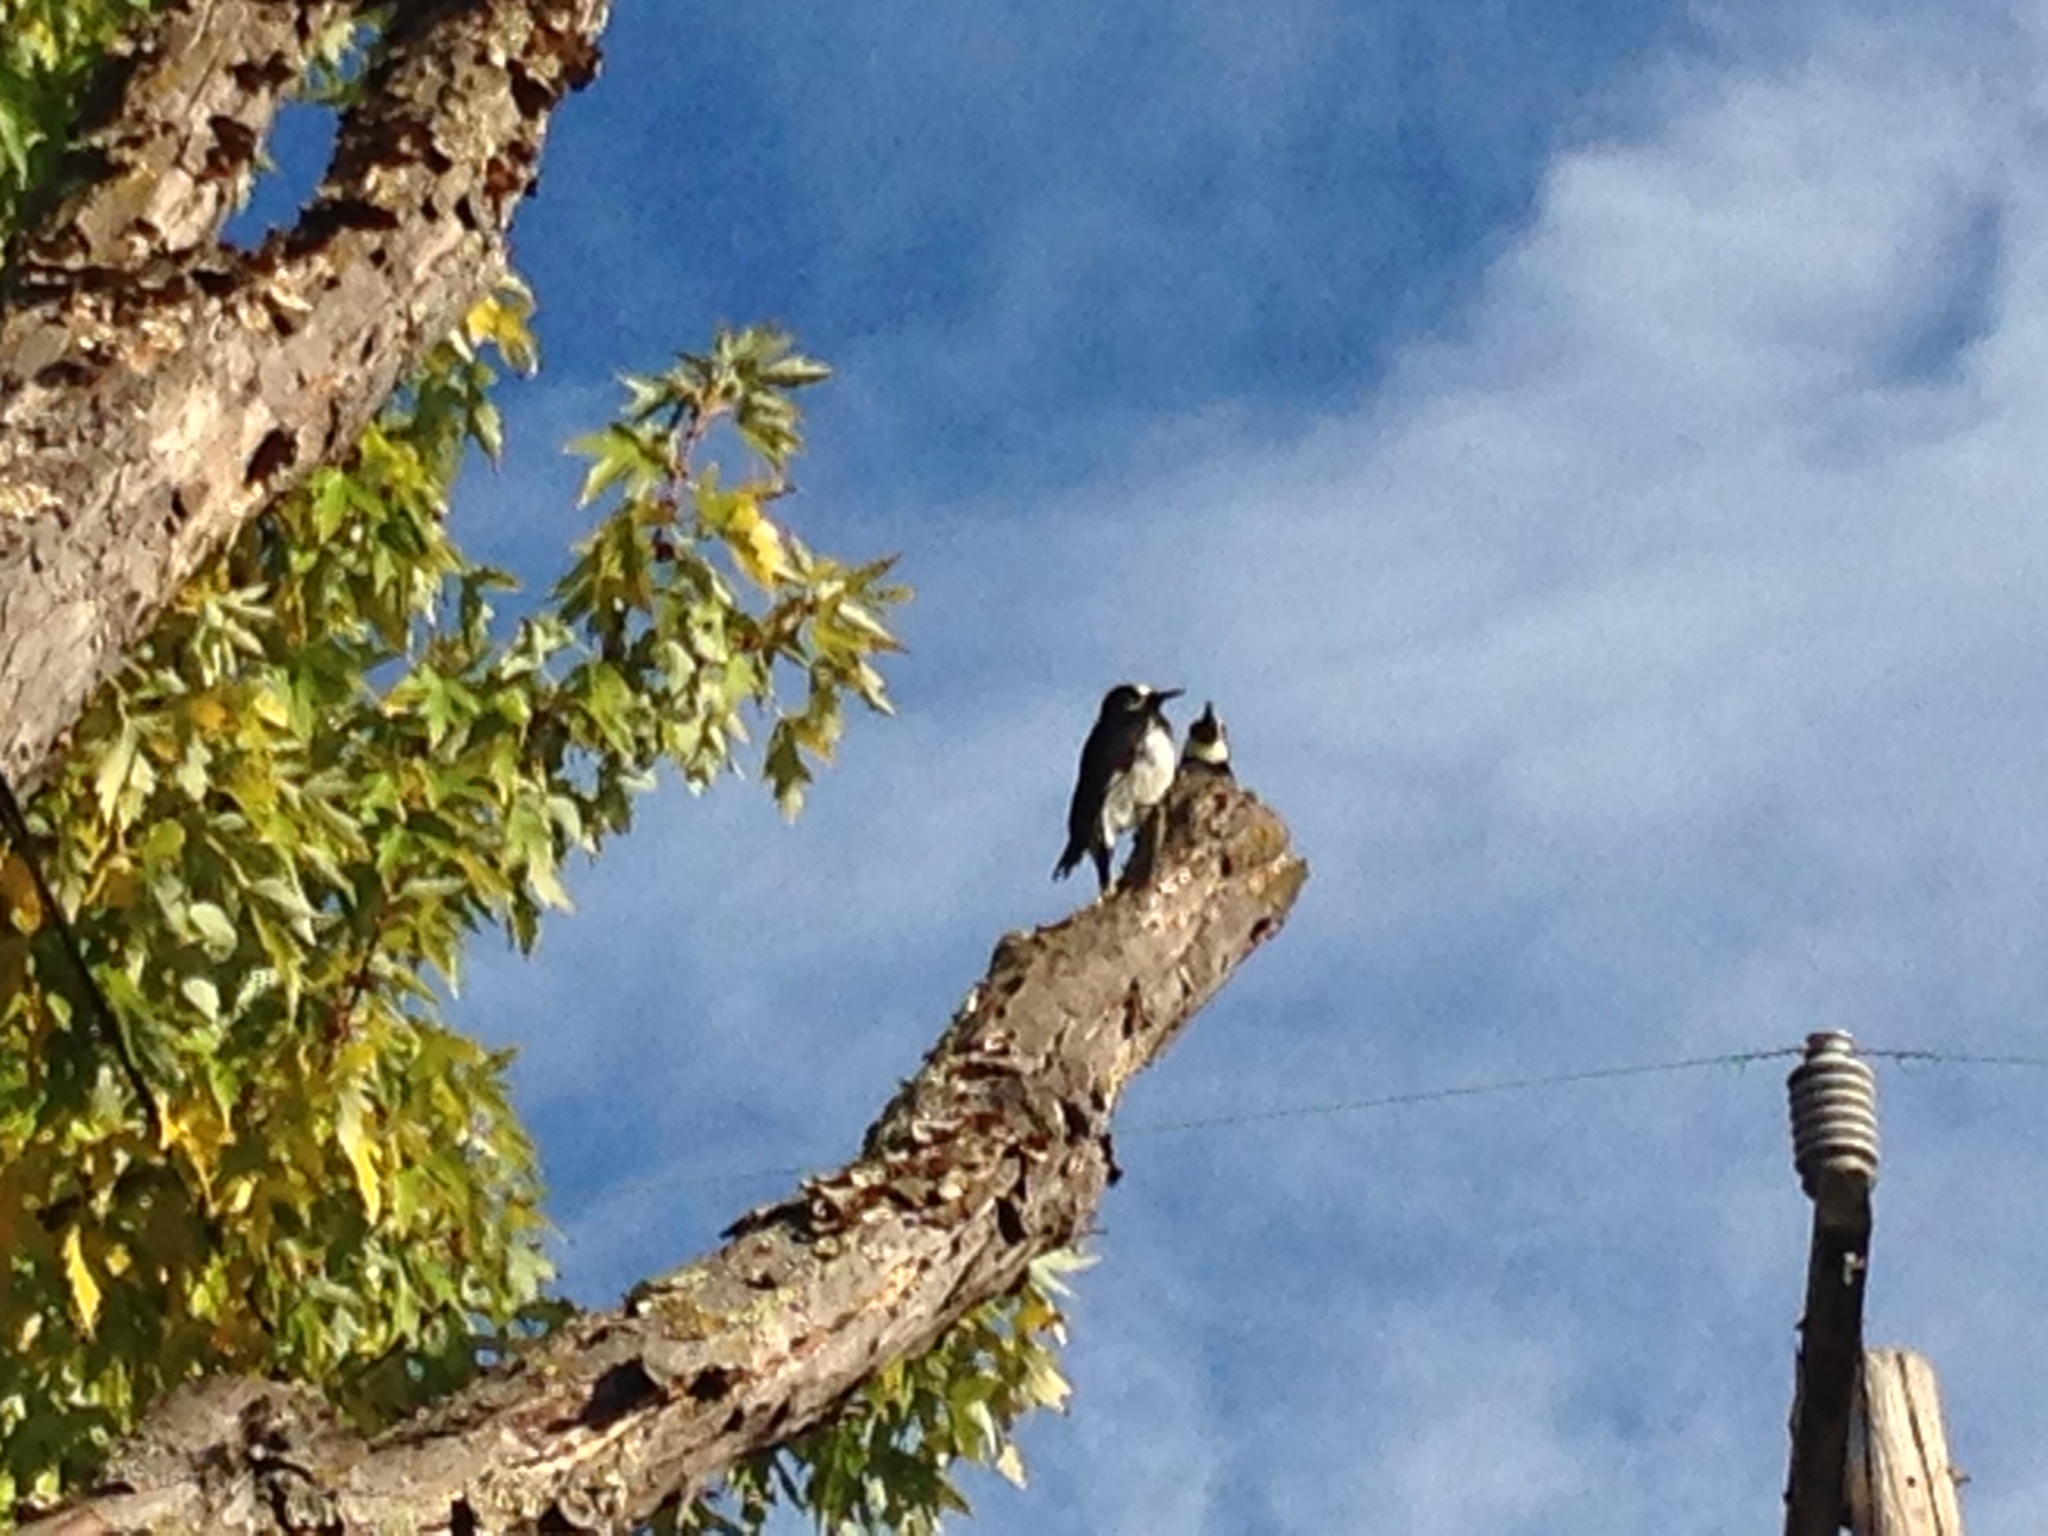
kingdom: Animalia
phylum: Chordata
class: Aves
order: Piciformes
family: Picidae
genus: Melanerpes
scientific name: Melanerpes formicivorus
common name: Acorn woodpecker
